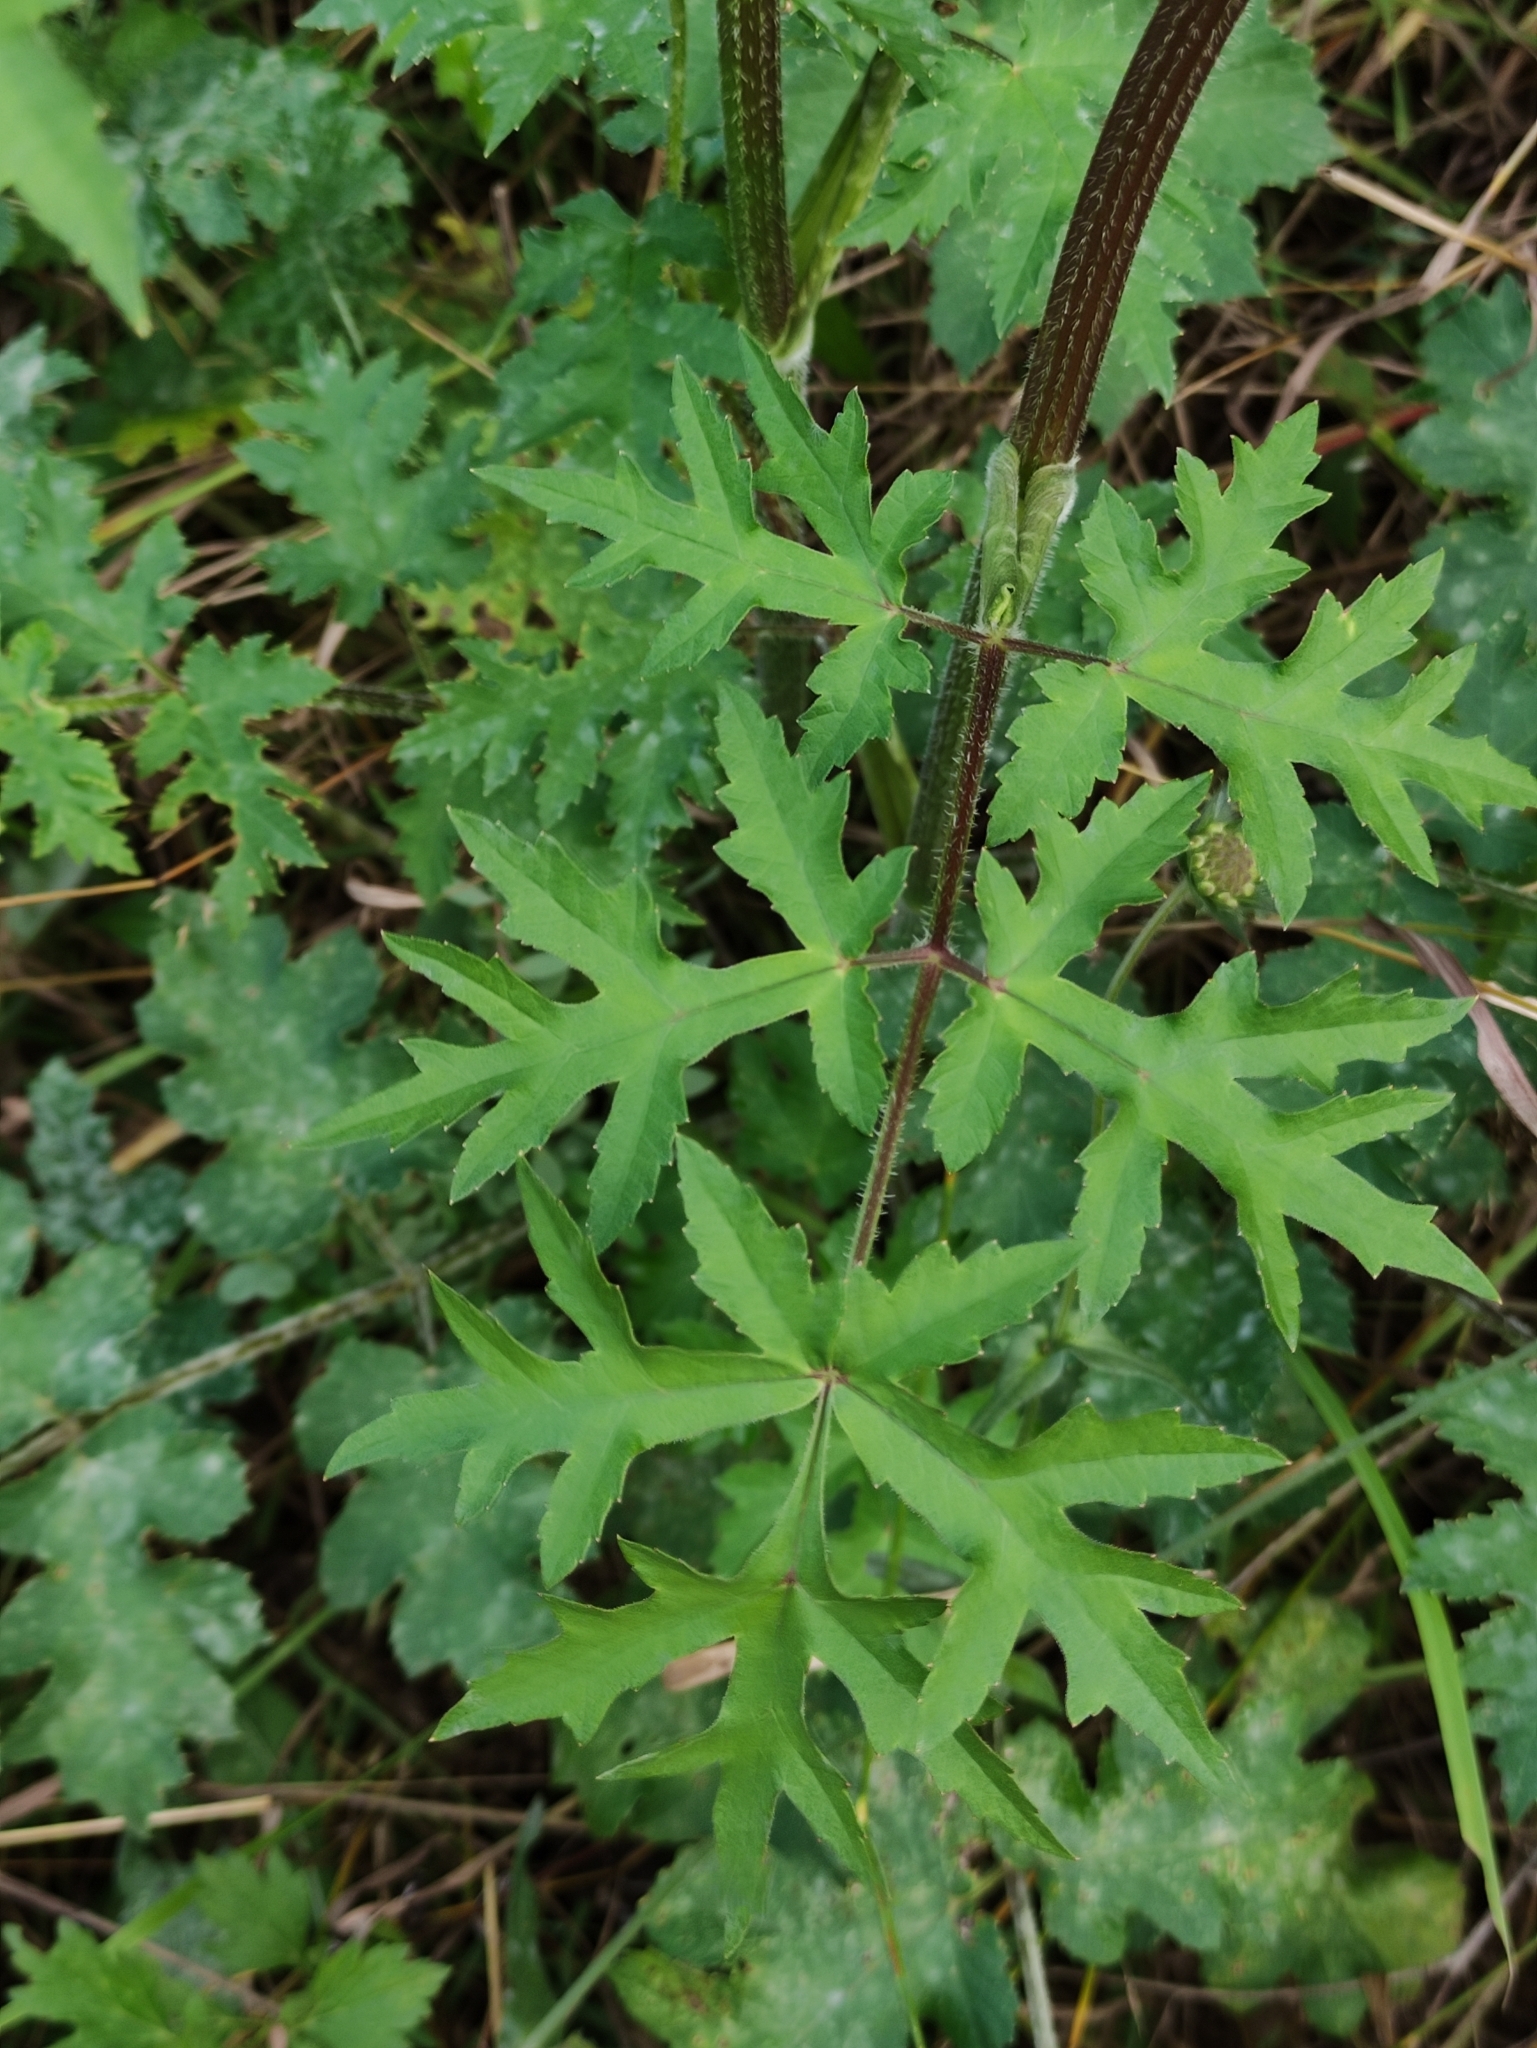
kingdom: Plantae
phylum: Tracheophyta
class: Magnoliopsida
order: Apiales
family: Apiaceae
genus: Heracleum
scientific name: Heracleum sphondylium
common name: Hogweed
